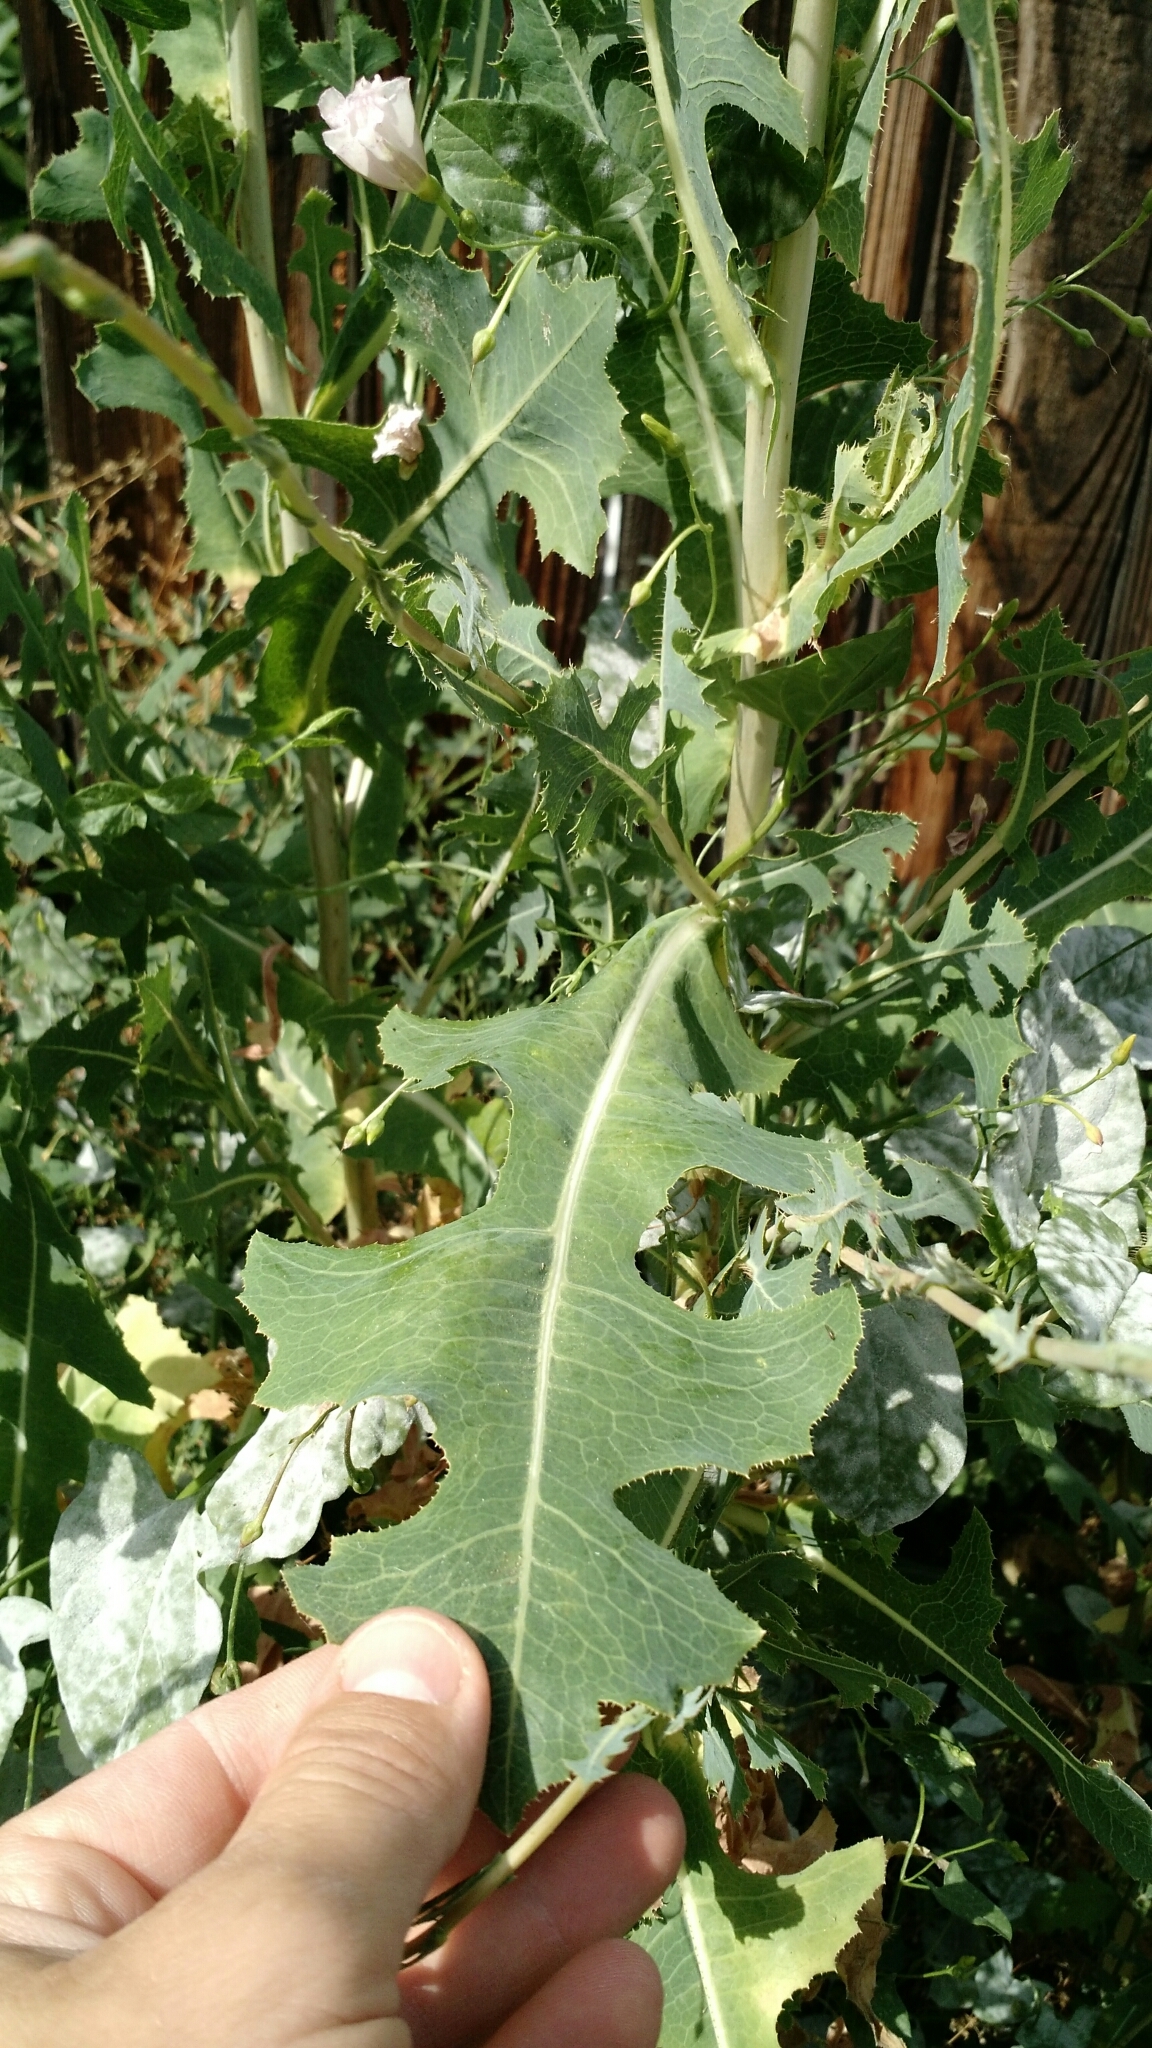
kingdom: Plantae
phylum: Tracheophyta
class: Magnoliopsida
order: Asterales
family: Asteraceae
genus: Lactuca
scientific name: Lactuca serriola
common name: Prickly lettuce
